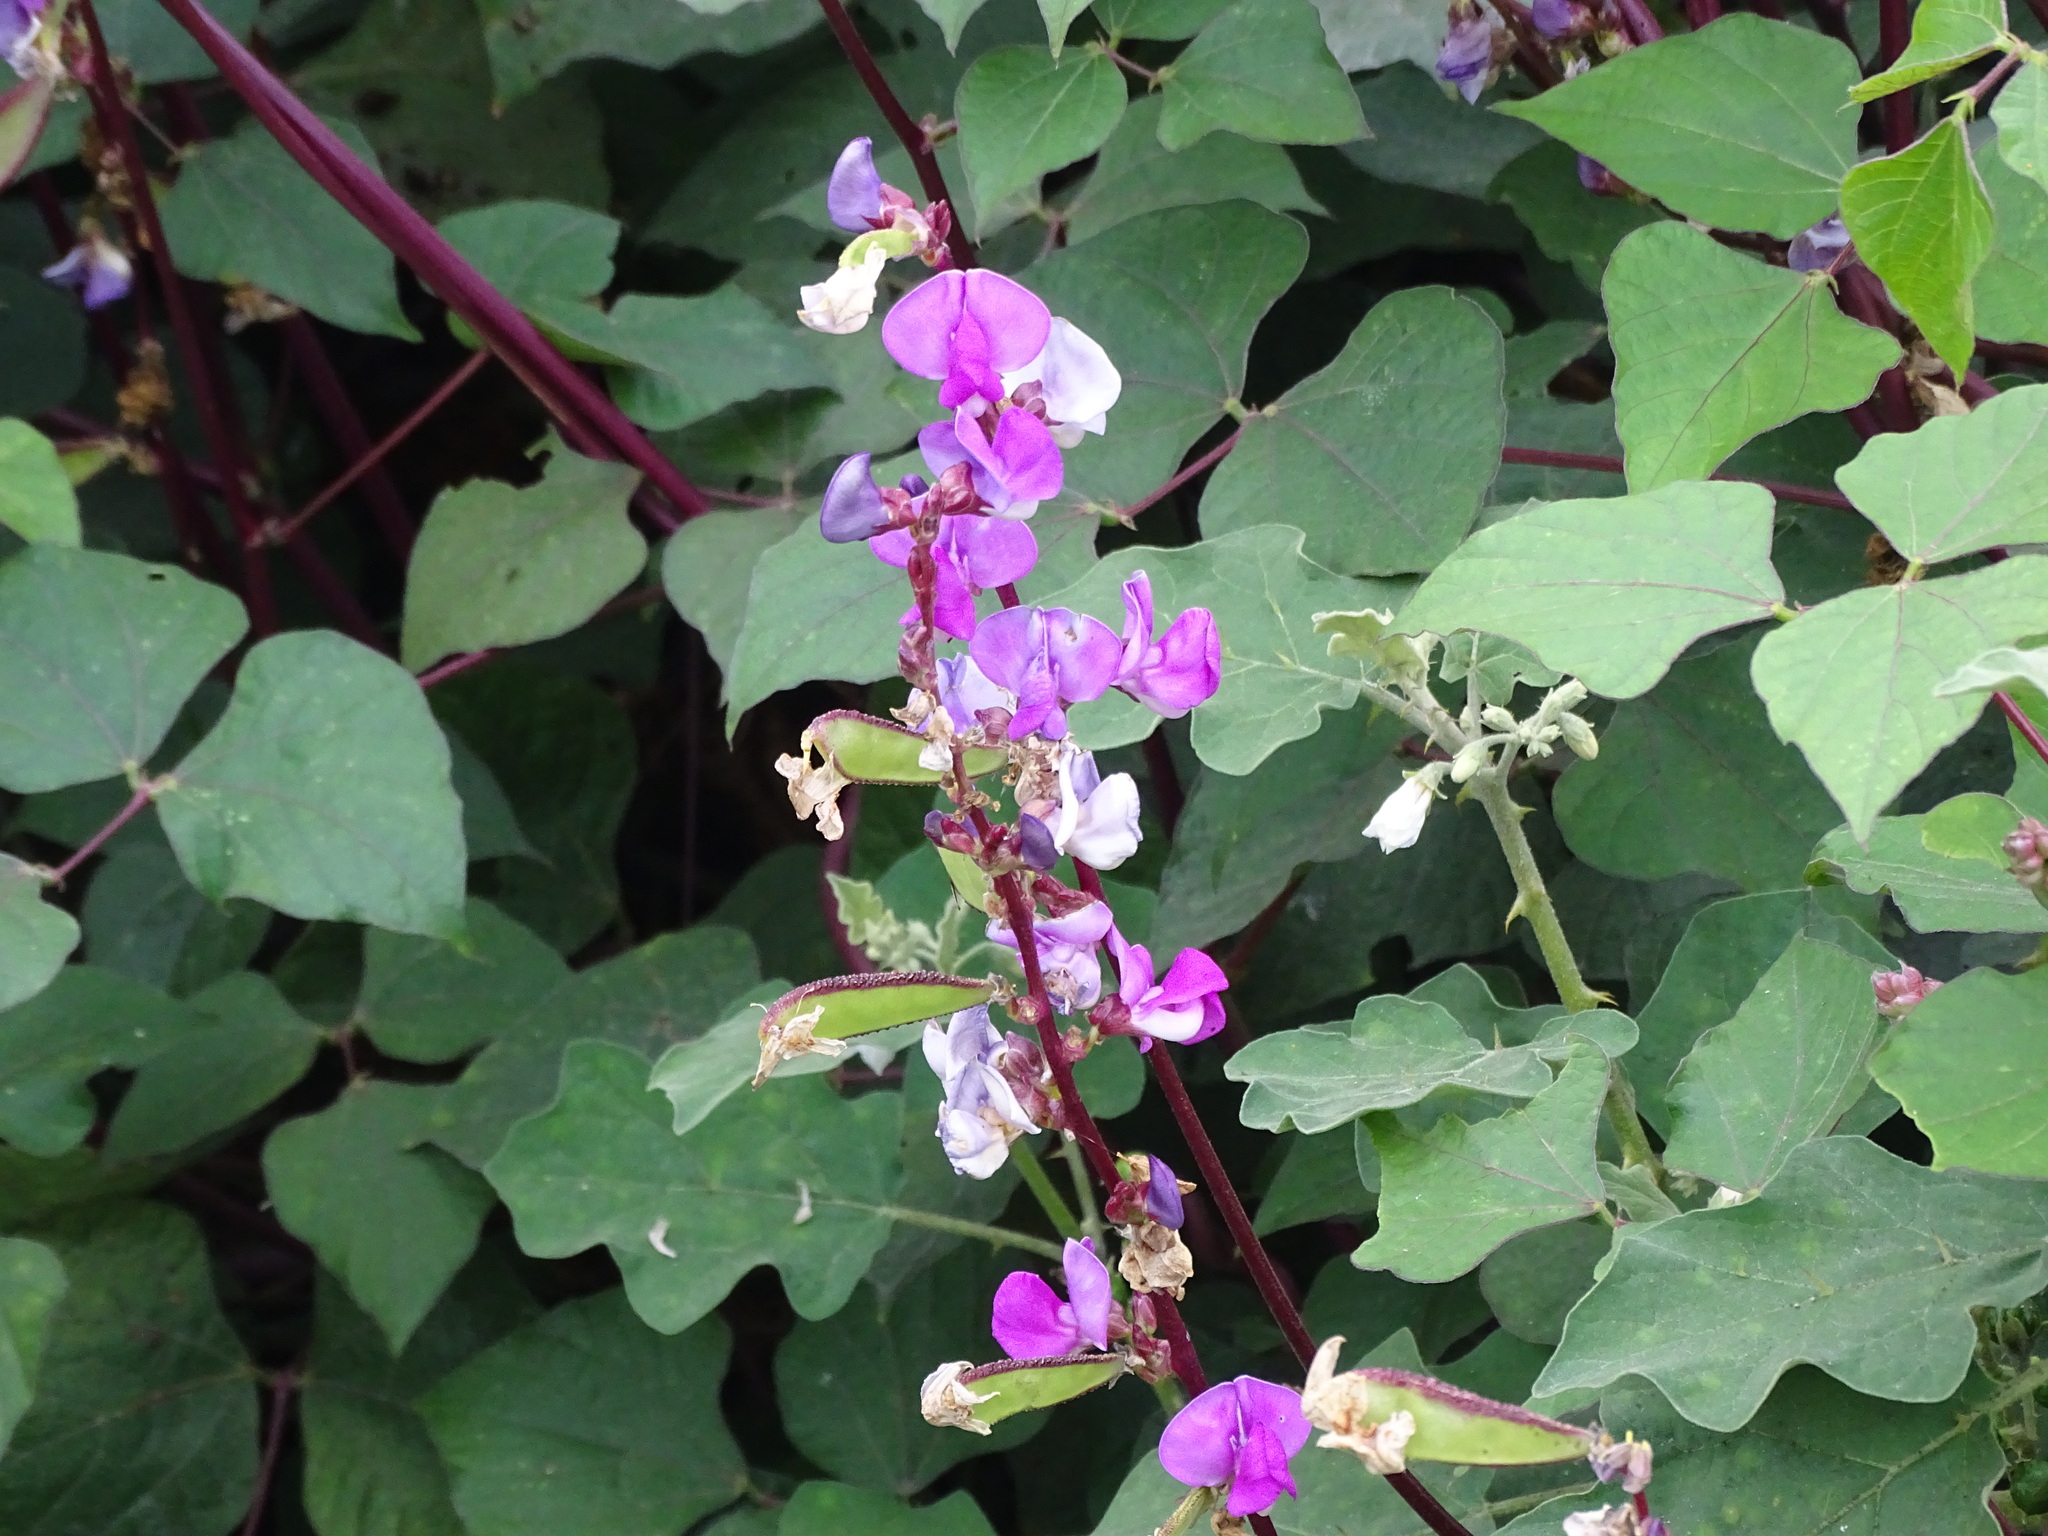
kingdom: Plantae
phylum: Tracheophyta
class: Magnoliopsida
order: Fabales
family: Fabaceae
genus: Lablab
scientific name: Lablab purpureus
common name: Lablab-bean
